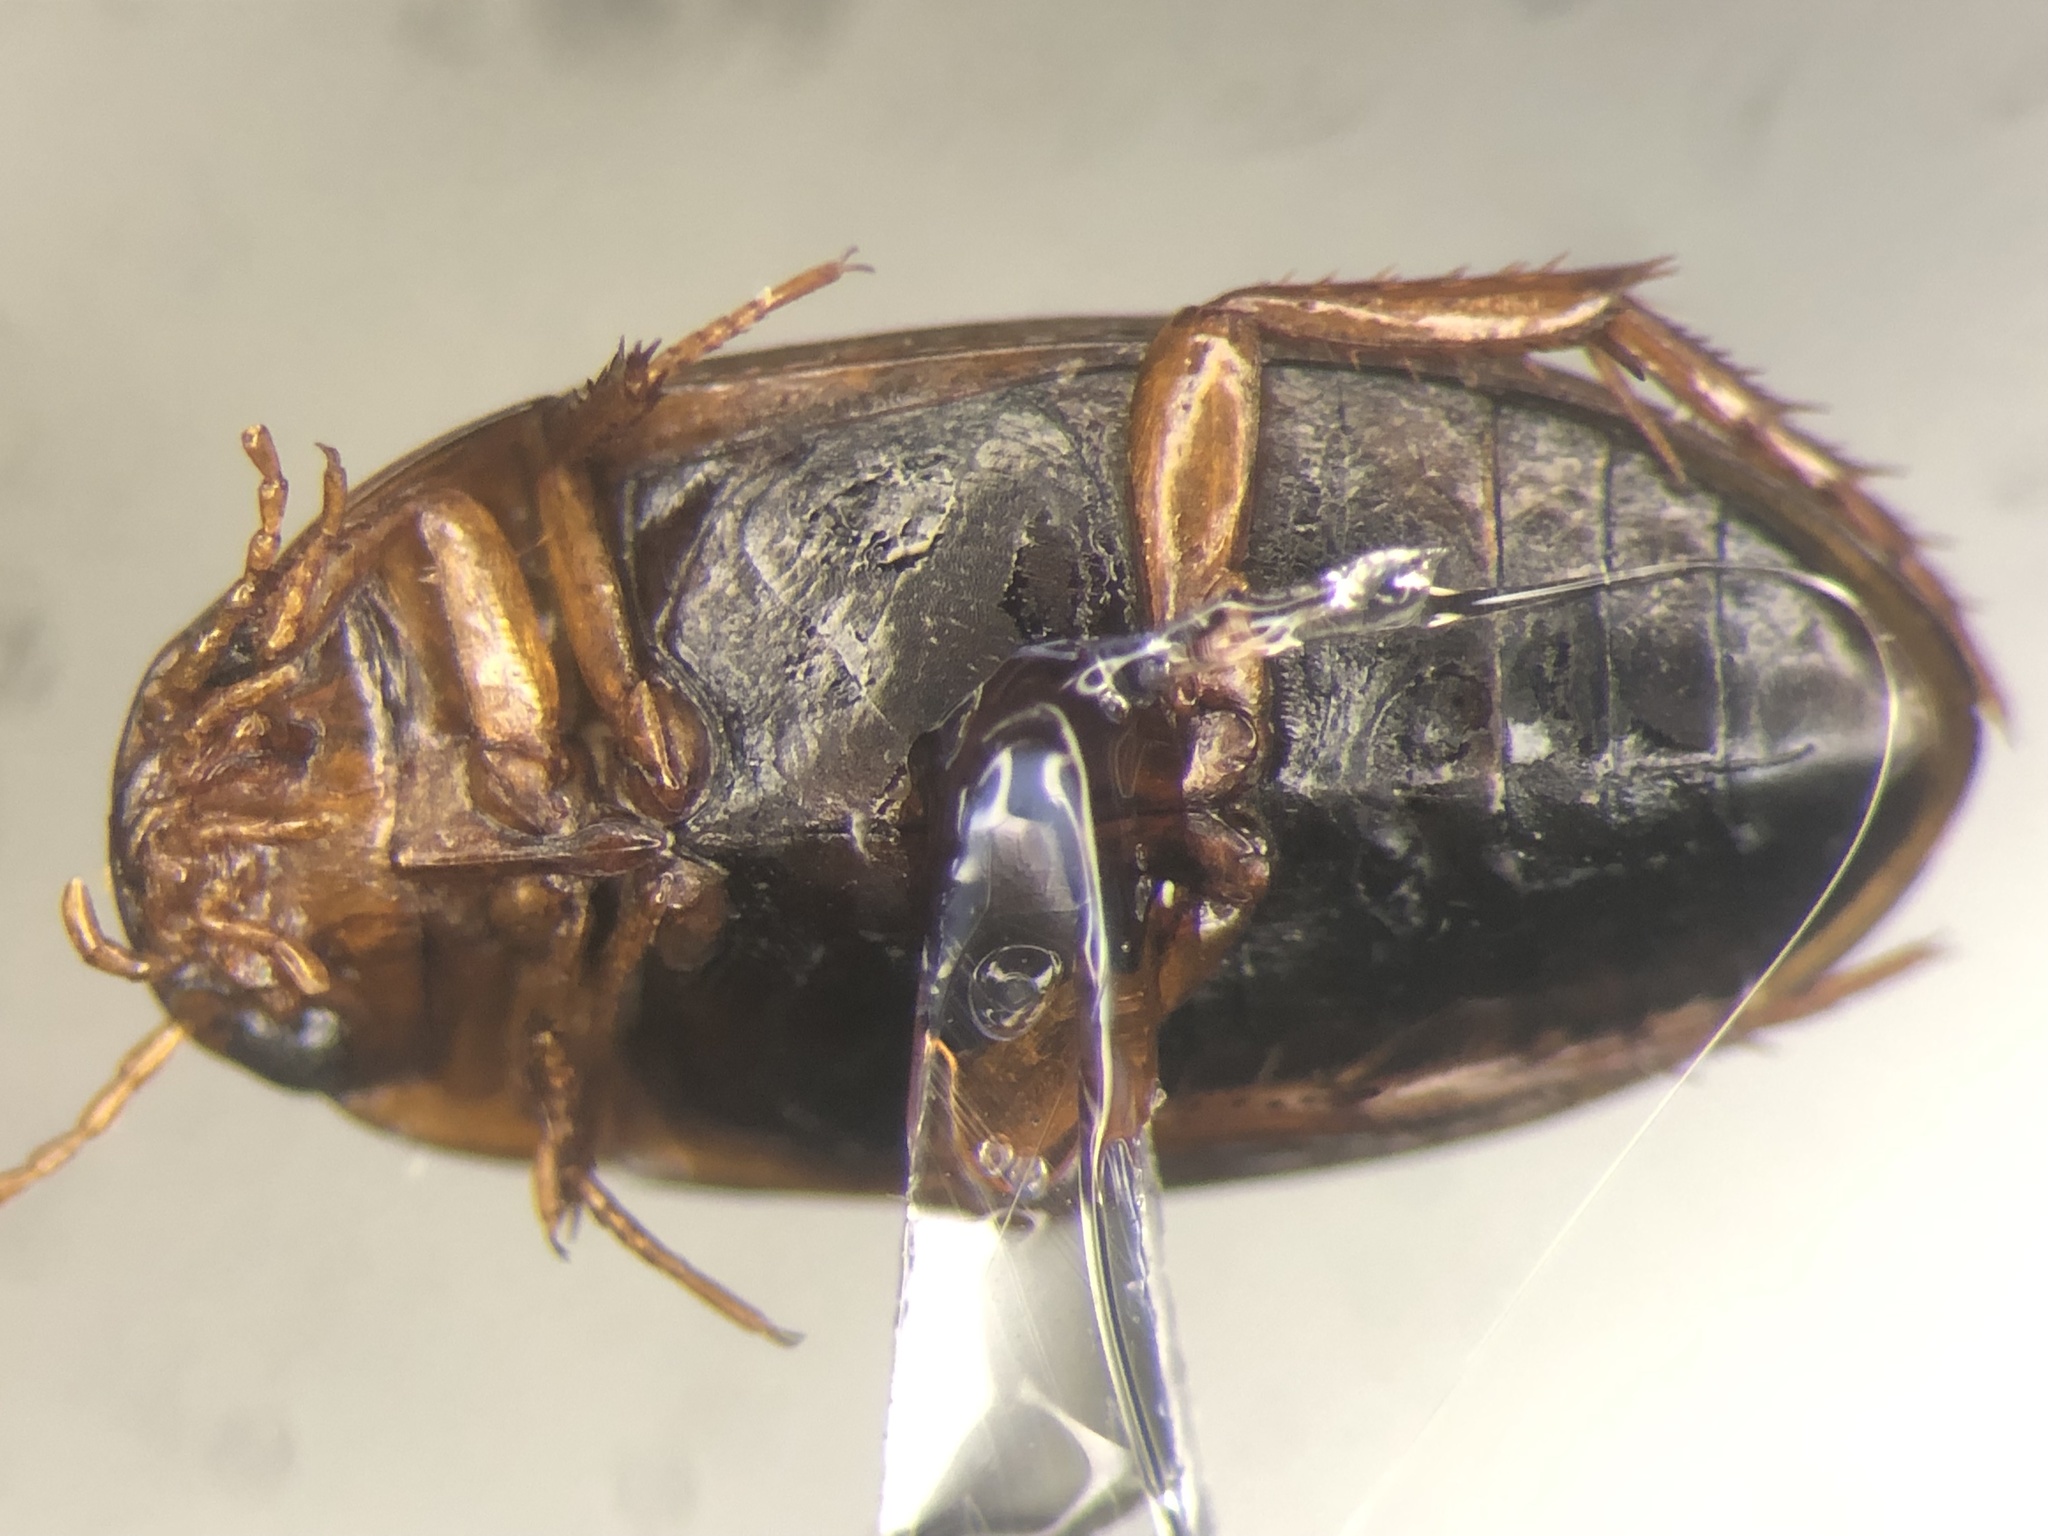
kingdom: Animalia
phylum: Arthropoda
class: Insecta
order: Coleoptera
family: Dytiscidae
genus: Copelatus
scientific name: Copelatus glyphicus
